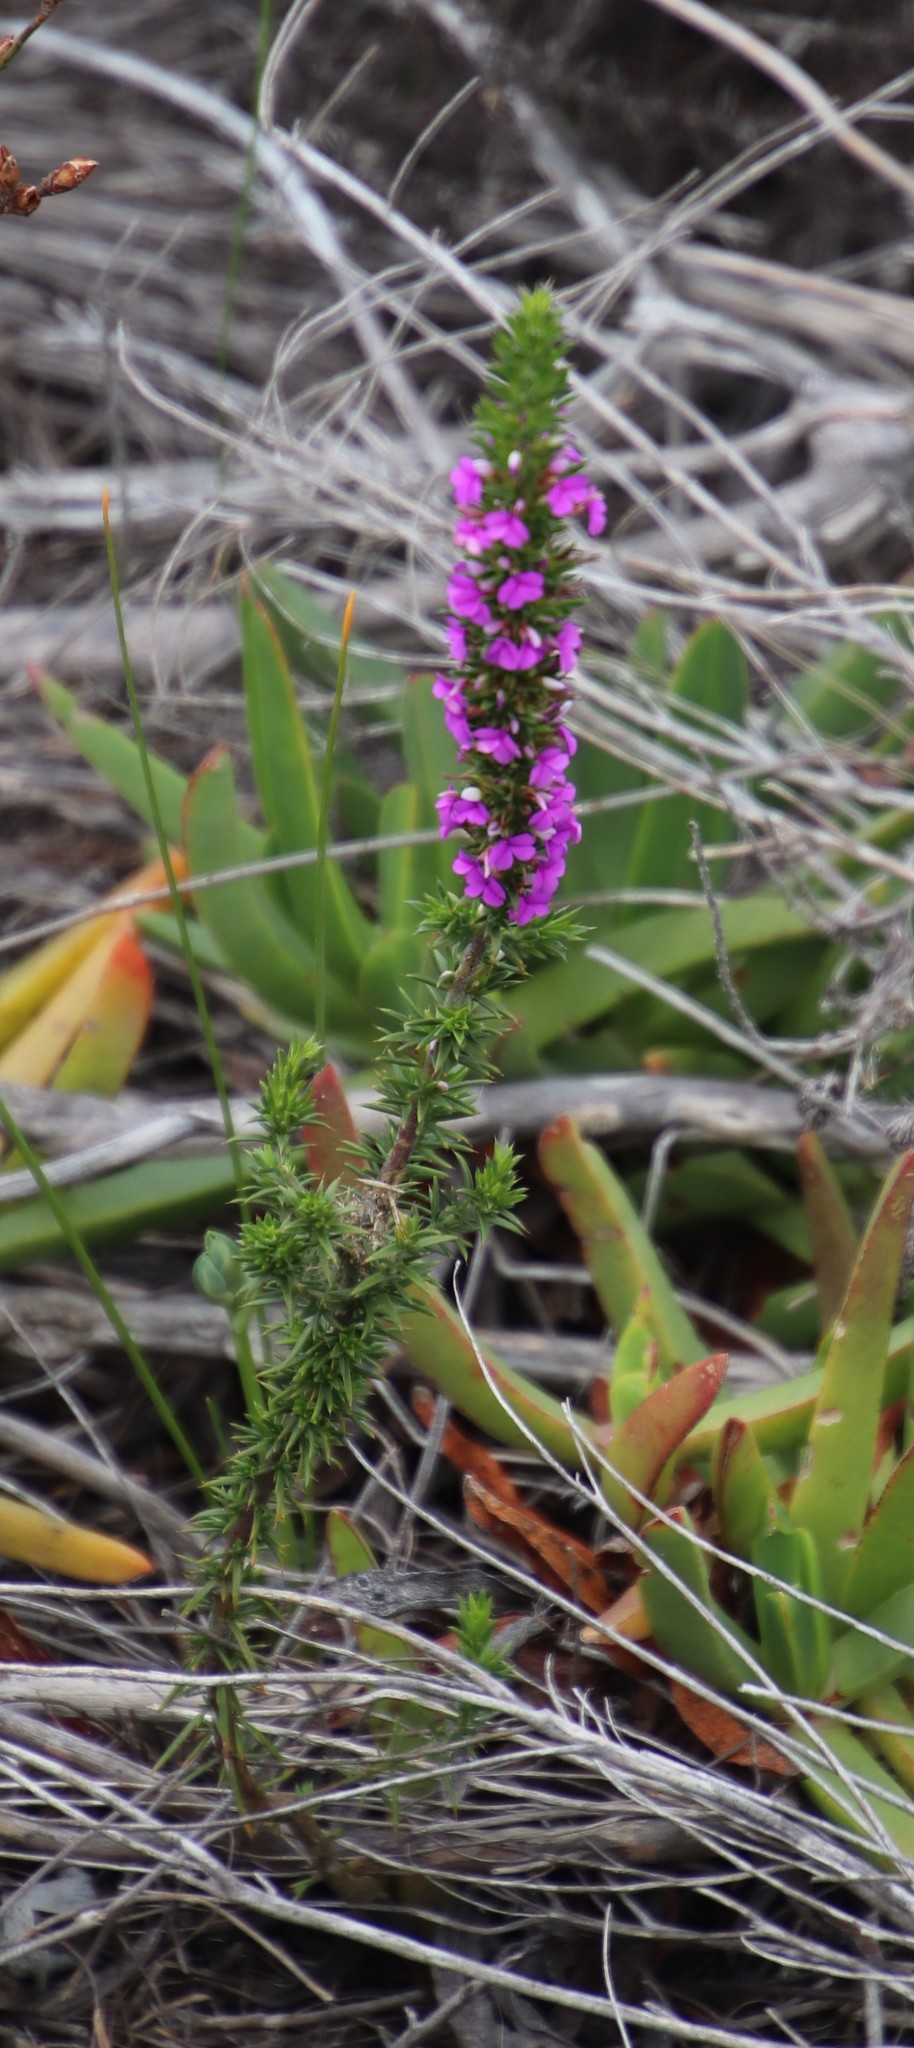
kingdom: Plantae
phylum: Tracheophyta
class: Magnoliopsida
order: Fabales
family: Polygalaceae
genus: Muraltia
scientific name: Muraltia heisteria
